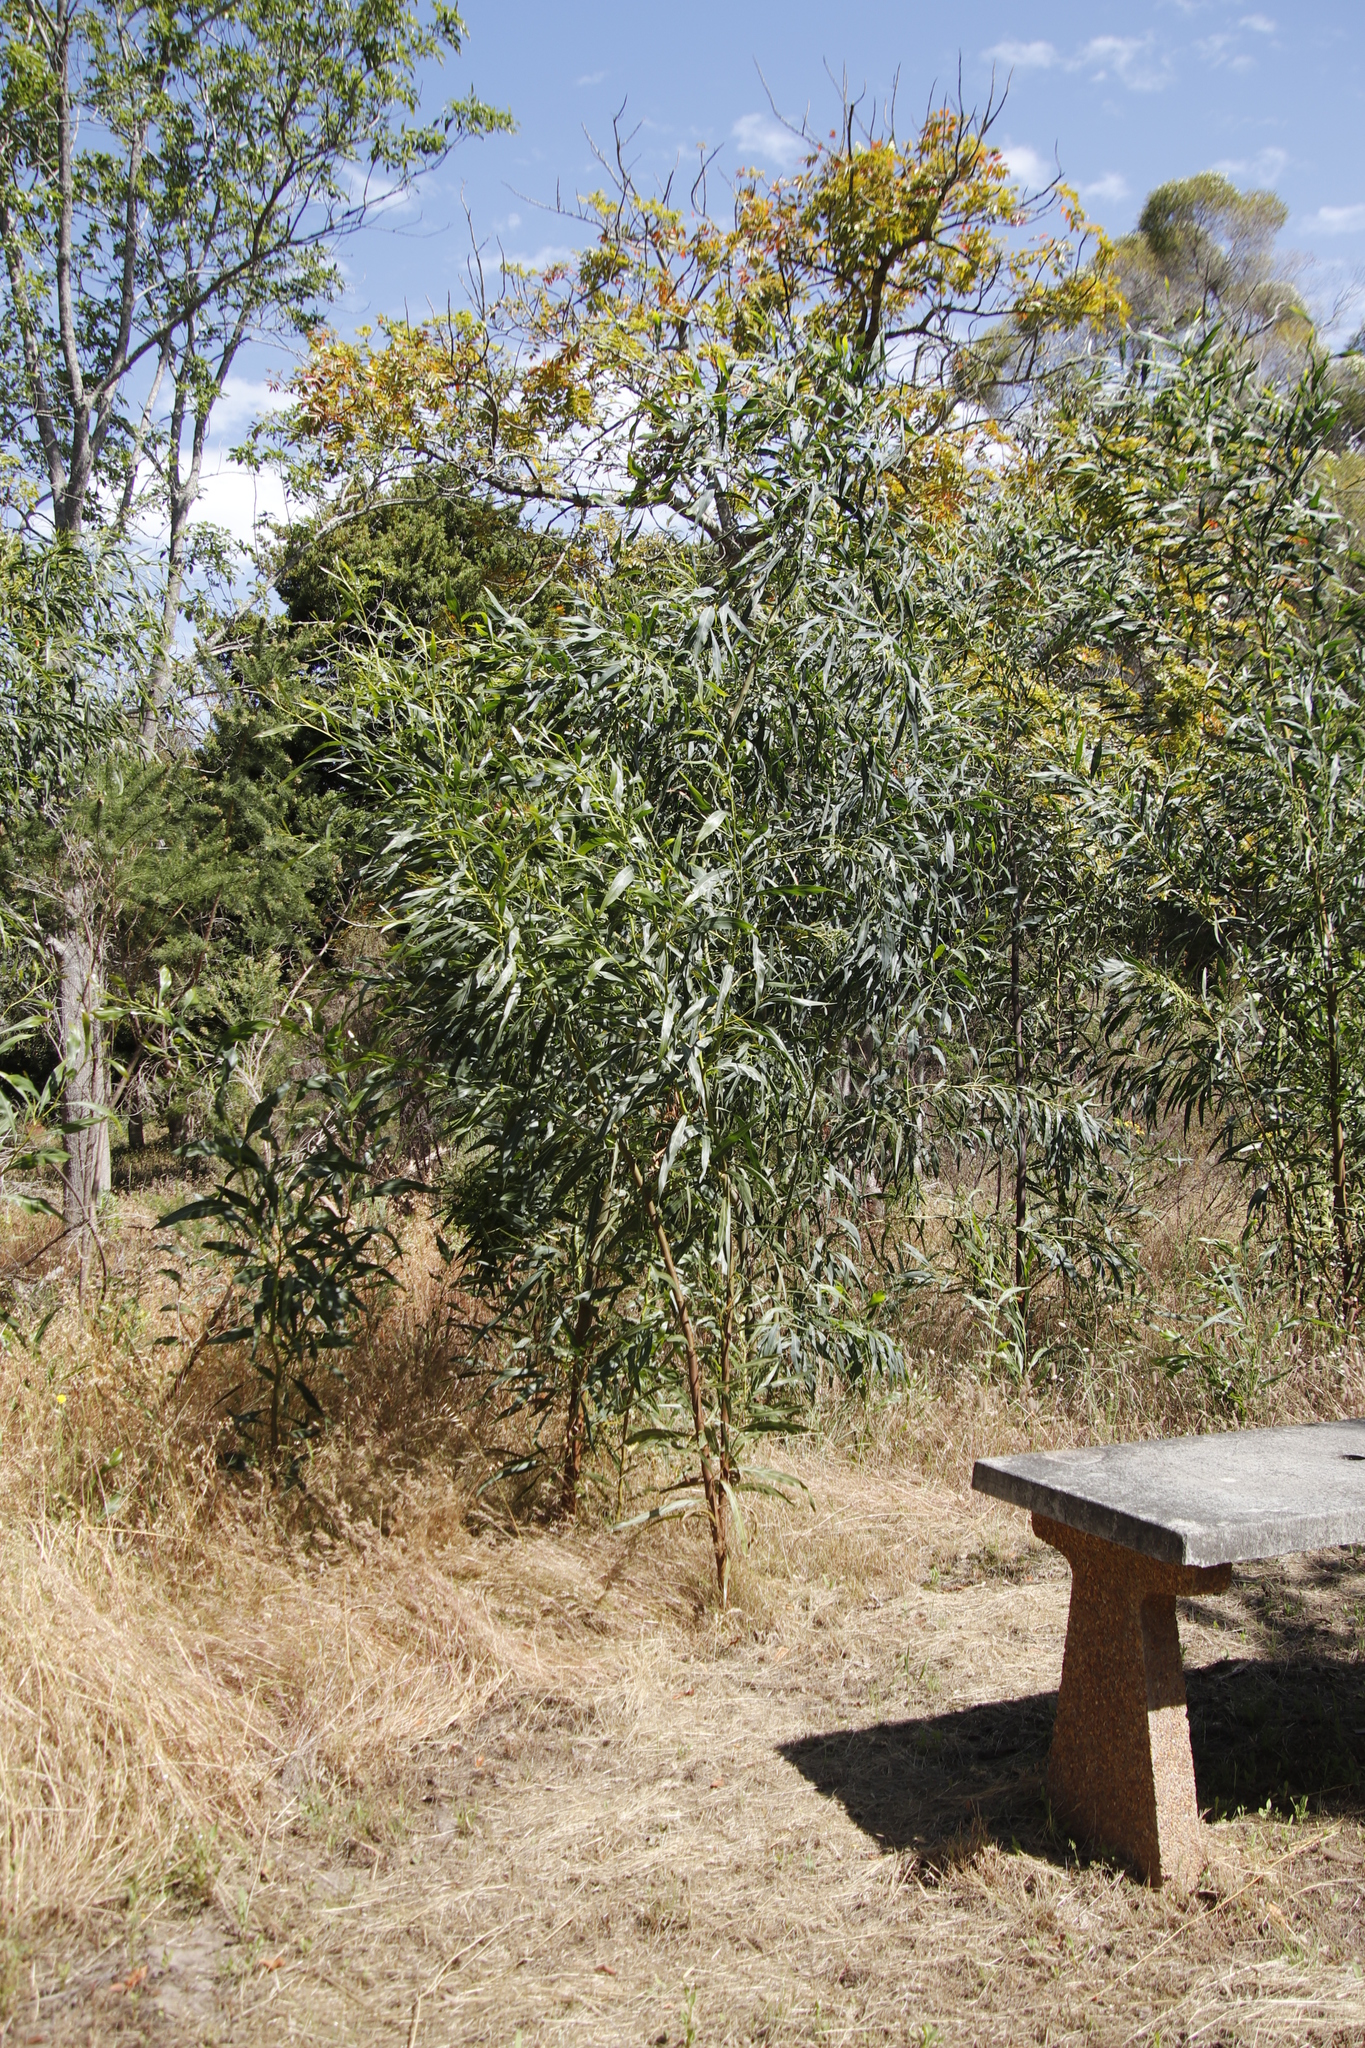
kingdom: Plantae
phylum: Tracheophyta
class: Magnoliopsida
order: Fabales
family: Fabaceae
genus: Acacia
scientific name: Acacia saligna
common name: Orange wattle
